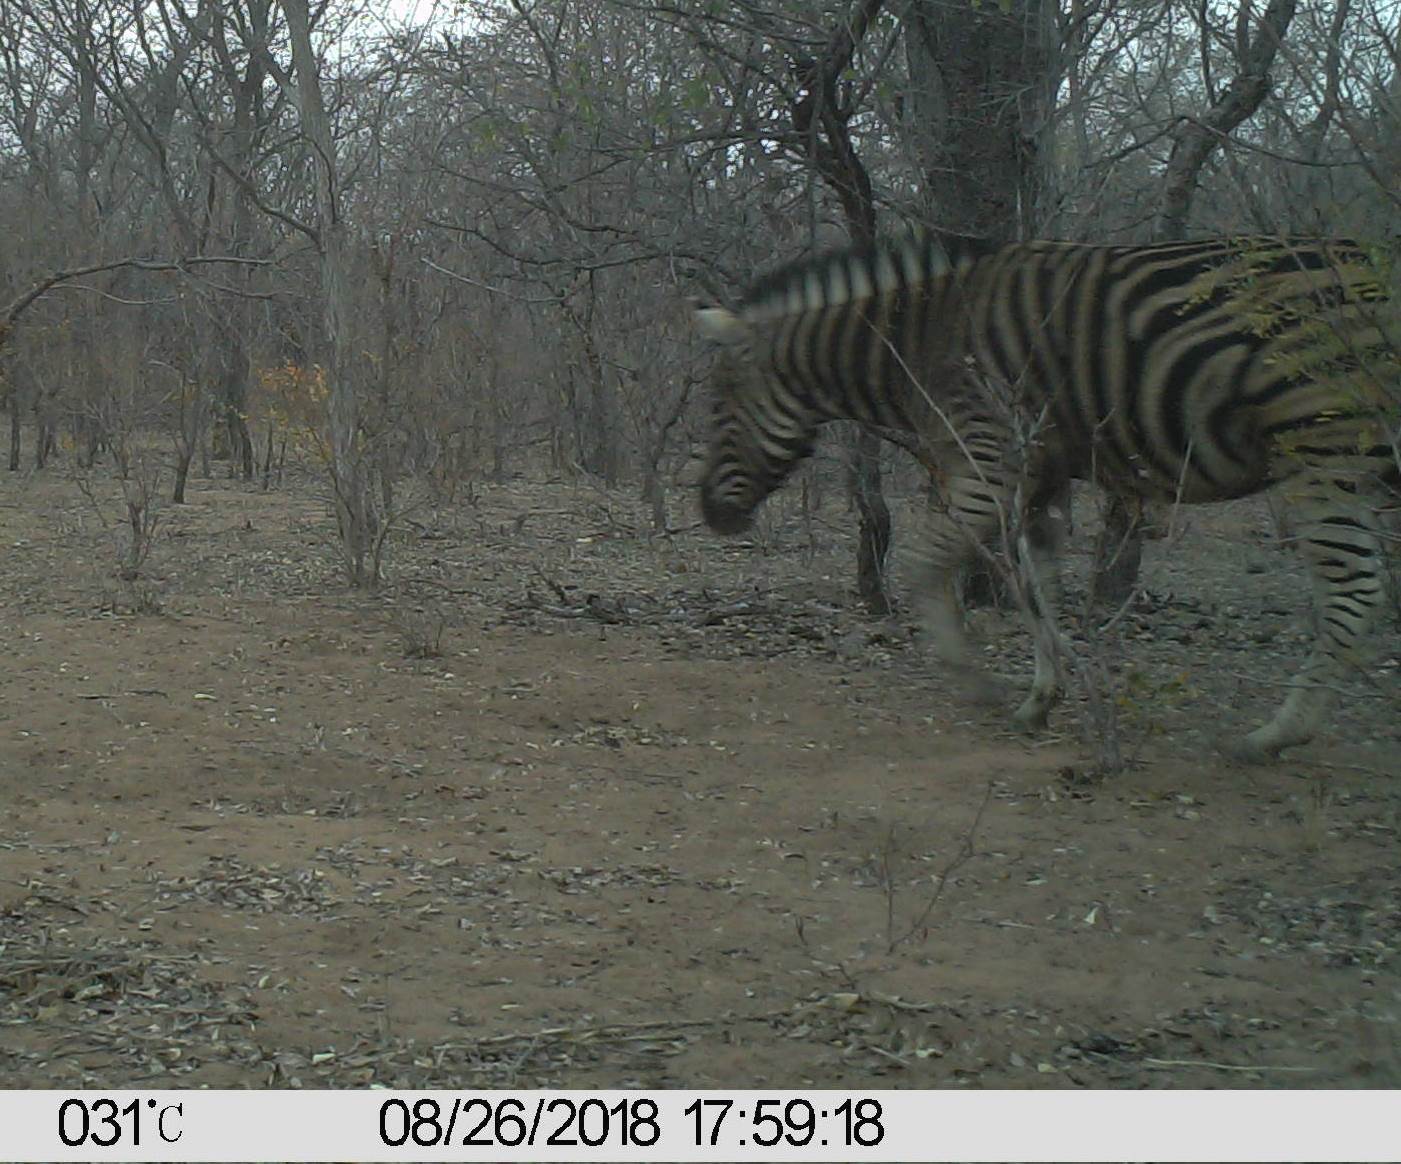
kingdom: Animalia
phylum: Chordata
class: Mammalia
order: Perissodactyla
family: Equidae
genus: Equus
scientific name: Equus quagga
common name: Plains zebra
